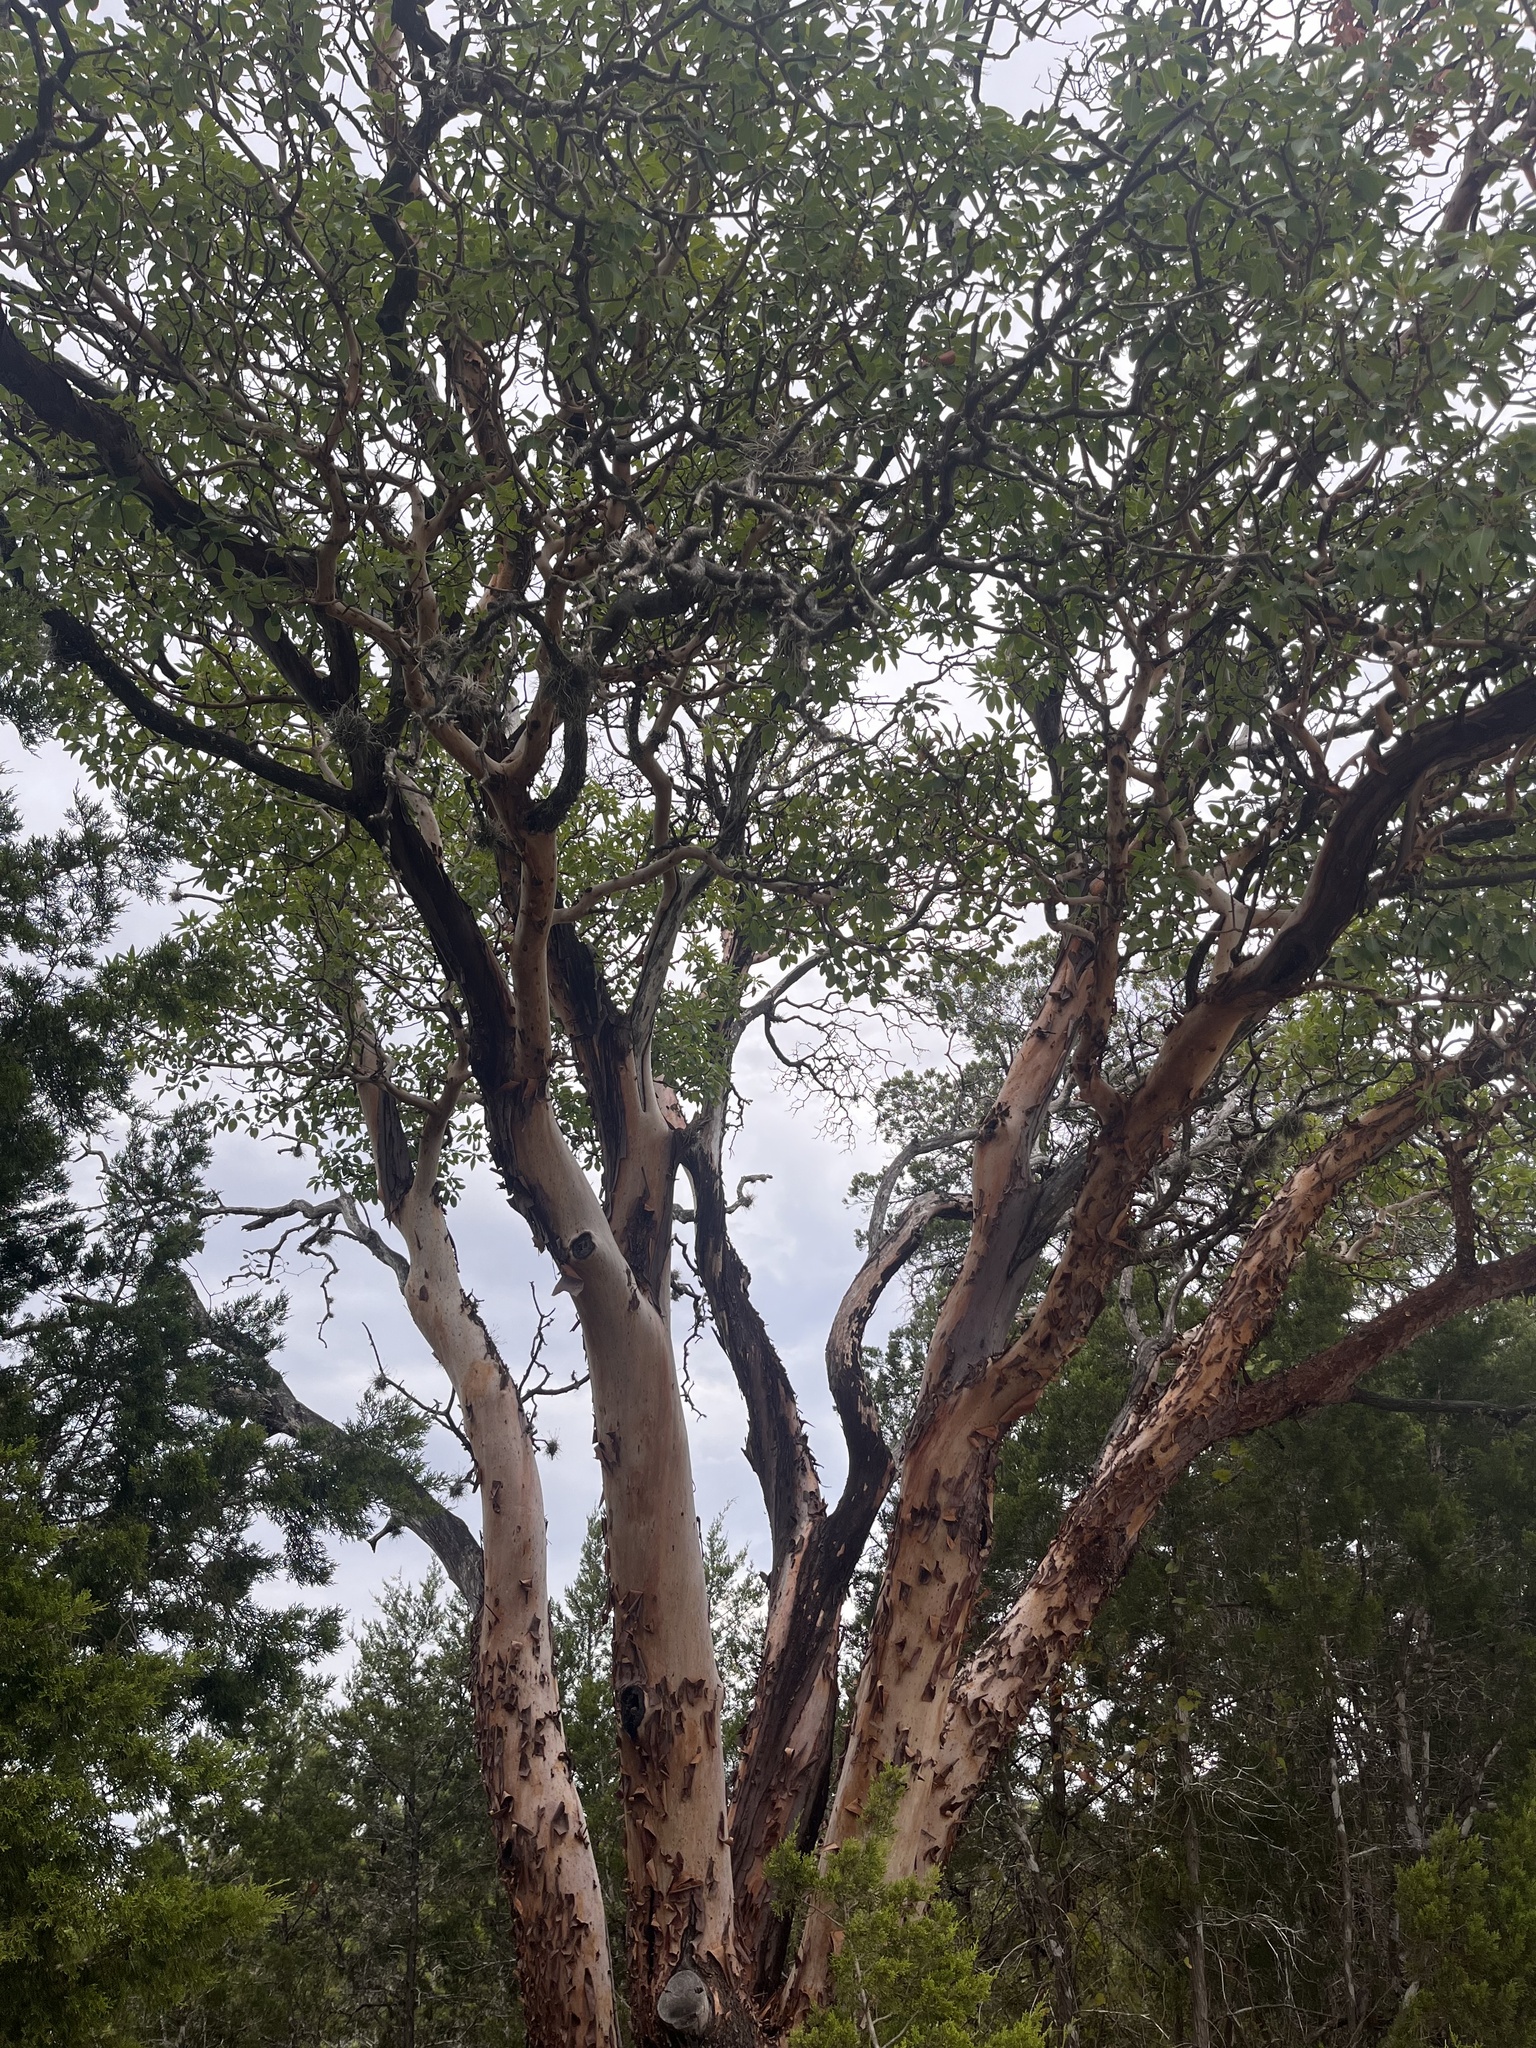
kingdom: Plantae
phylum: Tracheophyta
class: Magnoliopsida
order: Ericales
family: Ericaceae
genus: Arbutus
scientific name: Arbutus xalapensis
